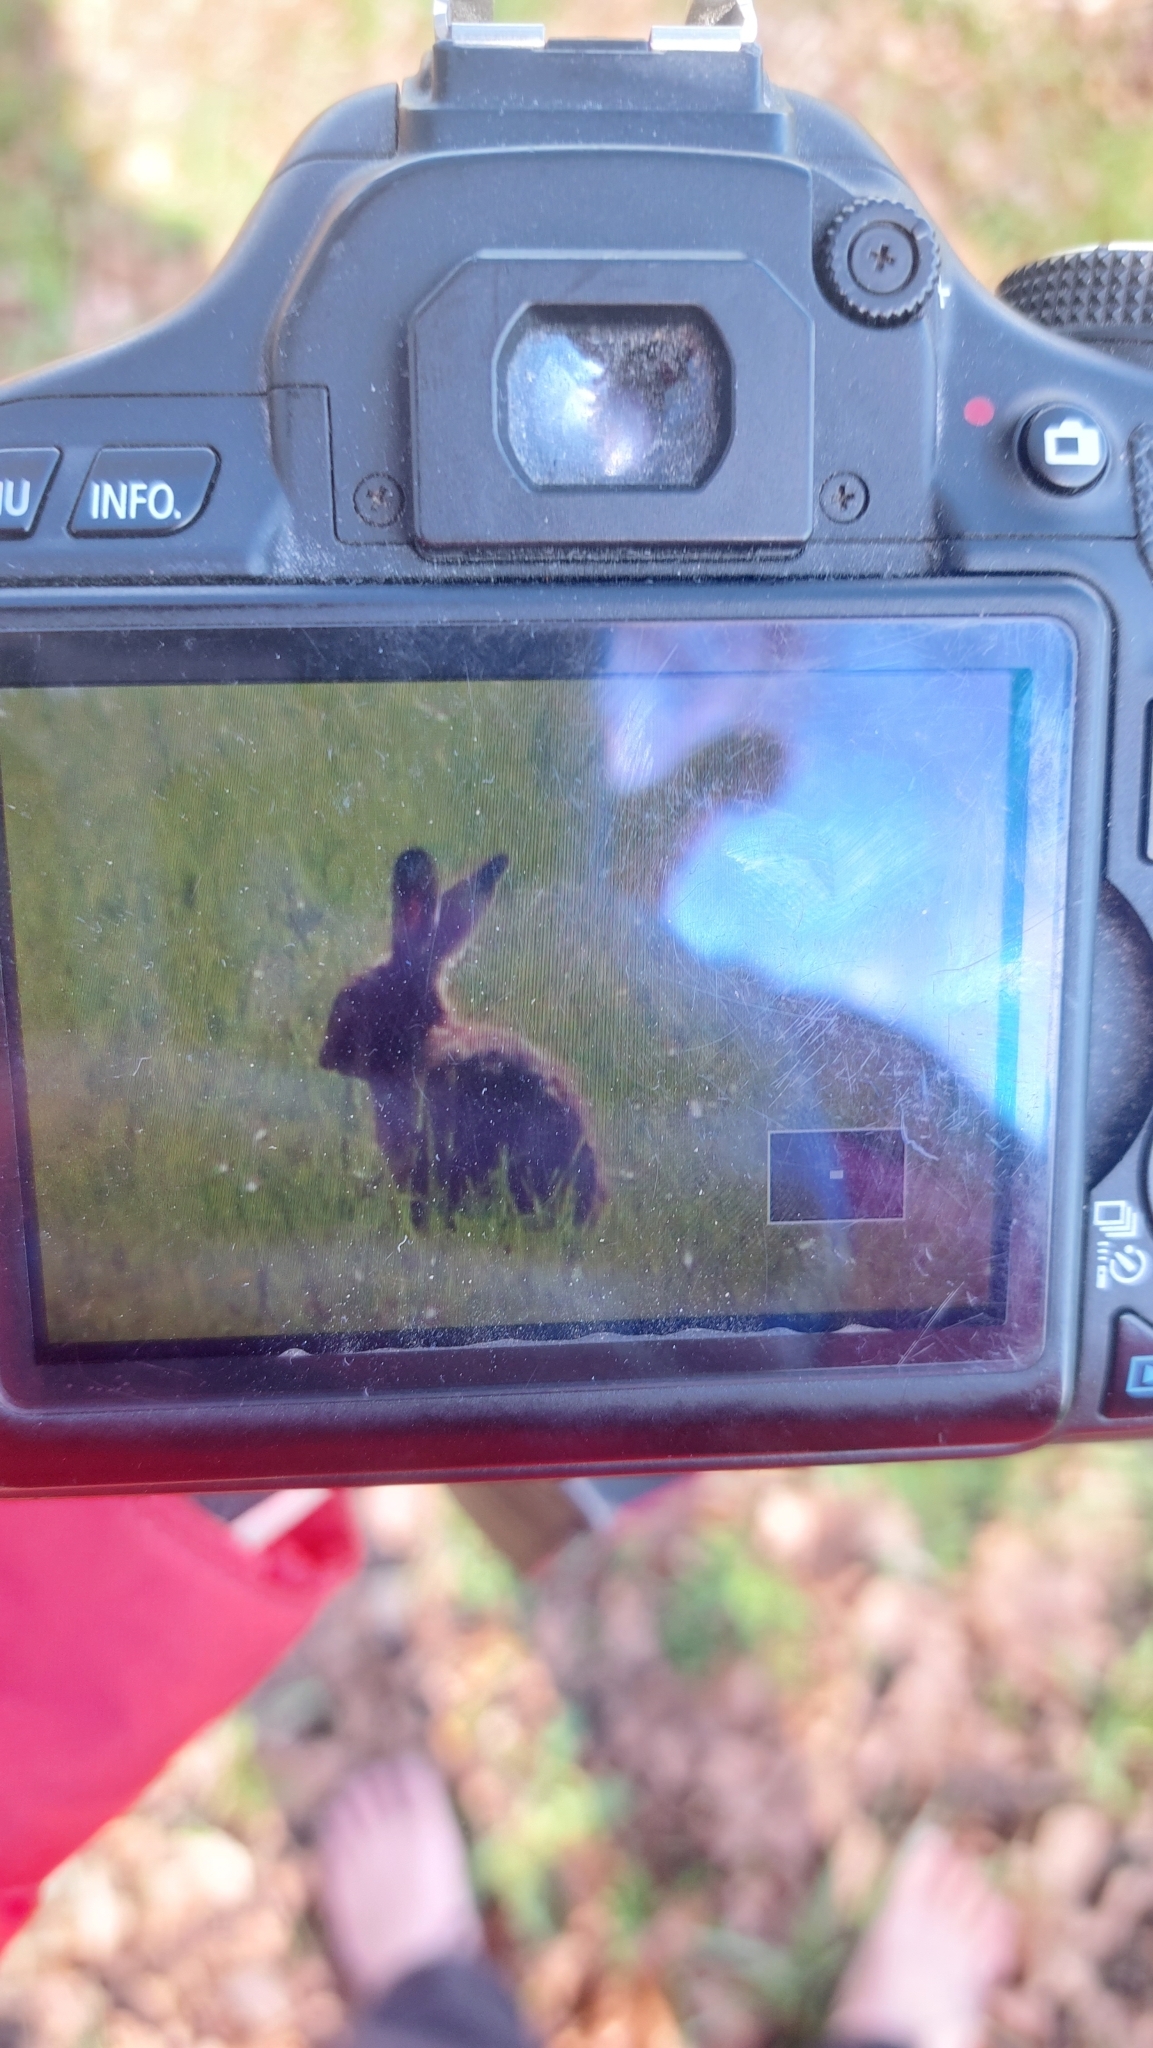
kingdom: Animalia
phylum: Chordata
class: Mammalia
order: Lagomorpha
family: Leporidae
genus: Lepus
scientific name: Lepus europaeus
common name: European hare
